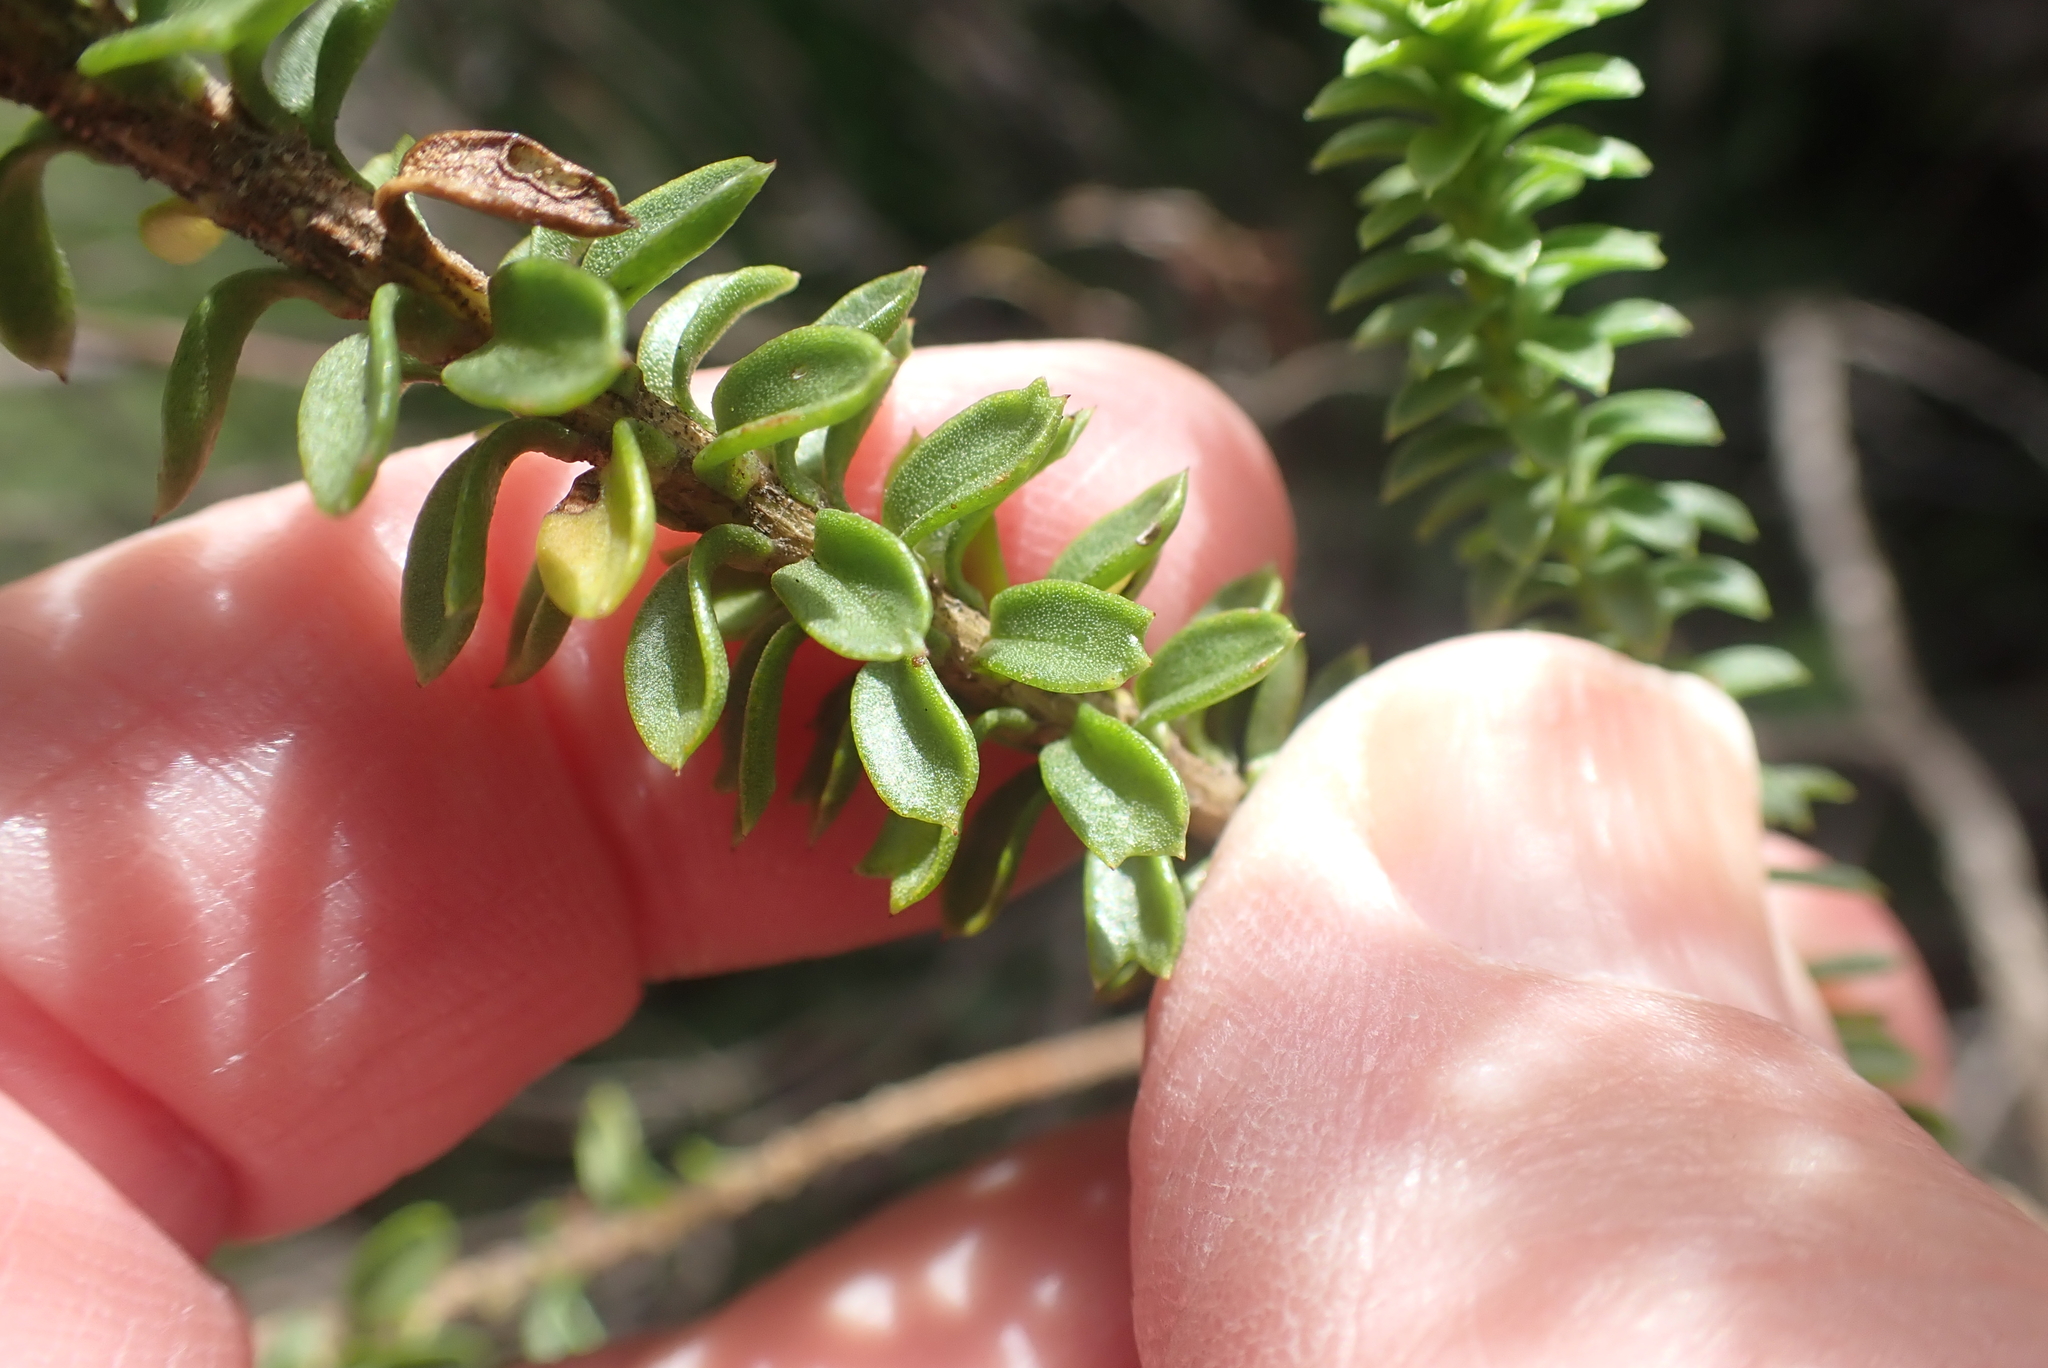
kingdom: Plantae
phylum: Tracheophyta
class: Magnoliopsida
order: Asterales
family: Asteraceae
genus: Athanasia
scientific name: Athanasia quinquedentata
